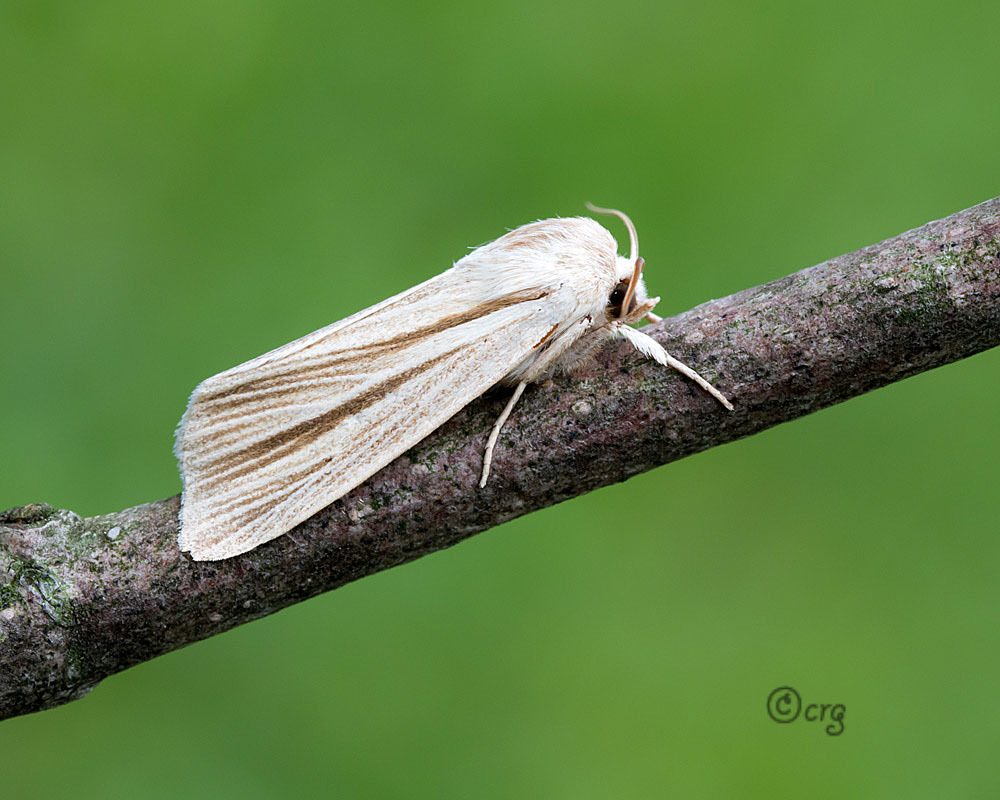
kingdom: Animalia
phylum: Arthropoda
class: Insecta
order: Lepidoptera
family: Noctuidae
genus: Acronicta
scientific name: Acronicta insularis
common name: Henry's marsh moth
